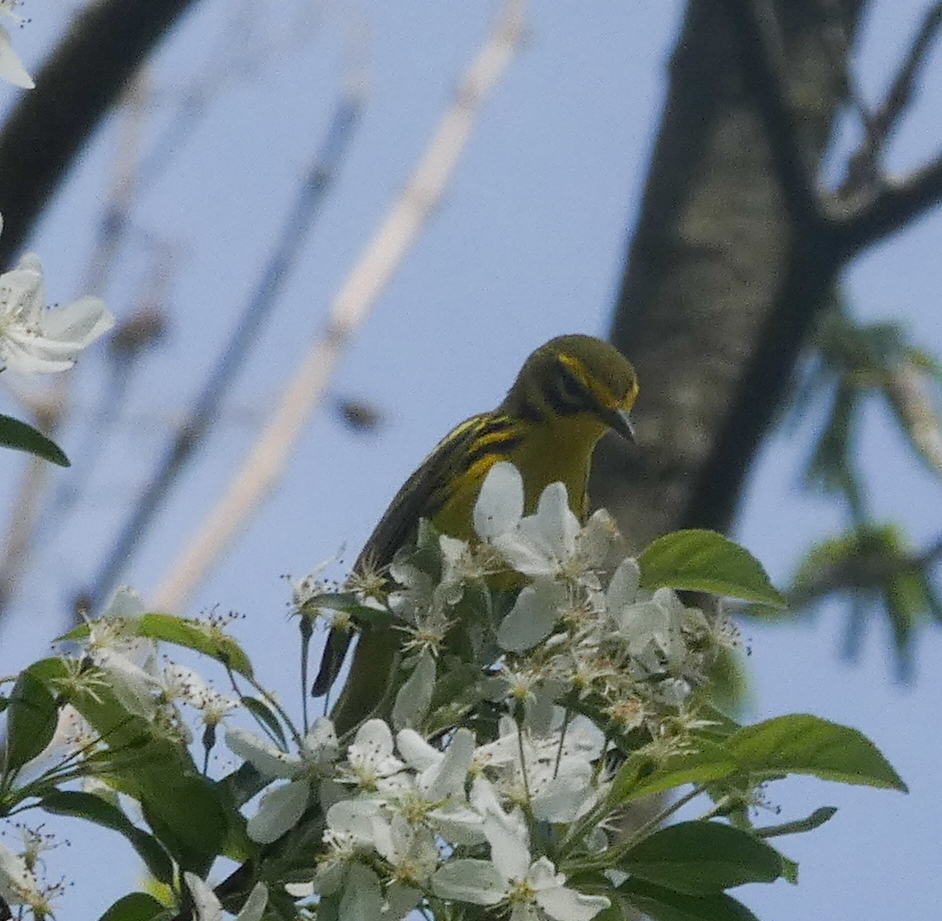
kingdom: Animalia
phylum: Chordata
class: Aves
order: Passeriformes
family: Parulidae
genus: Setophaga
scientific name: Setophaga discolor
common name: Prairie warbler
